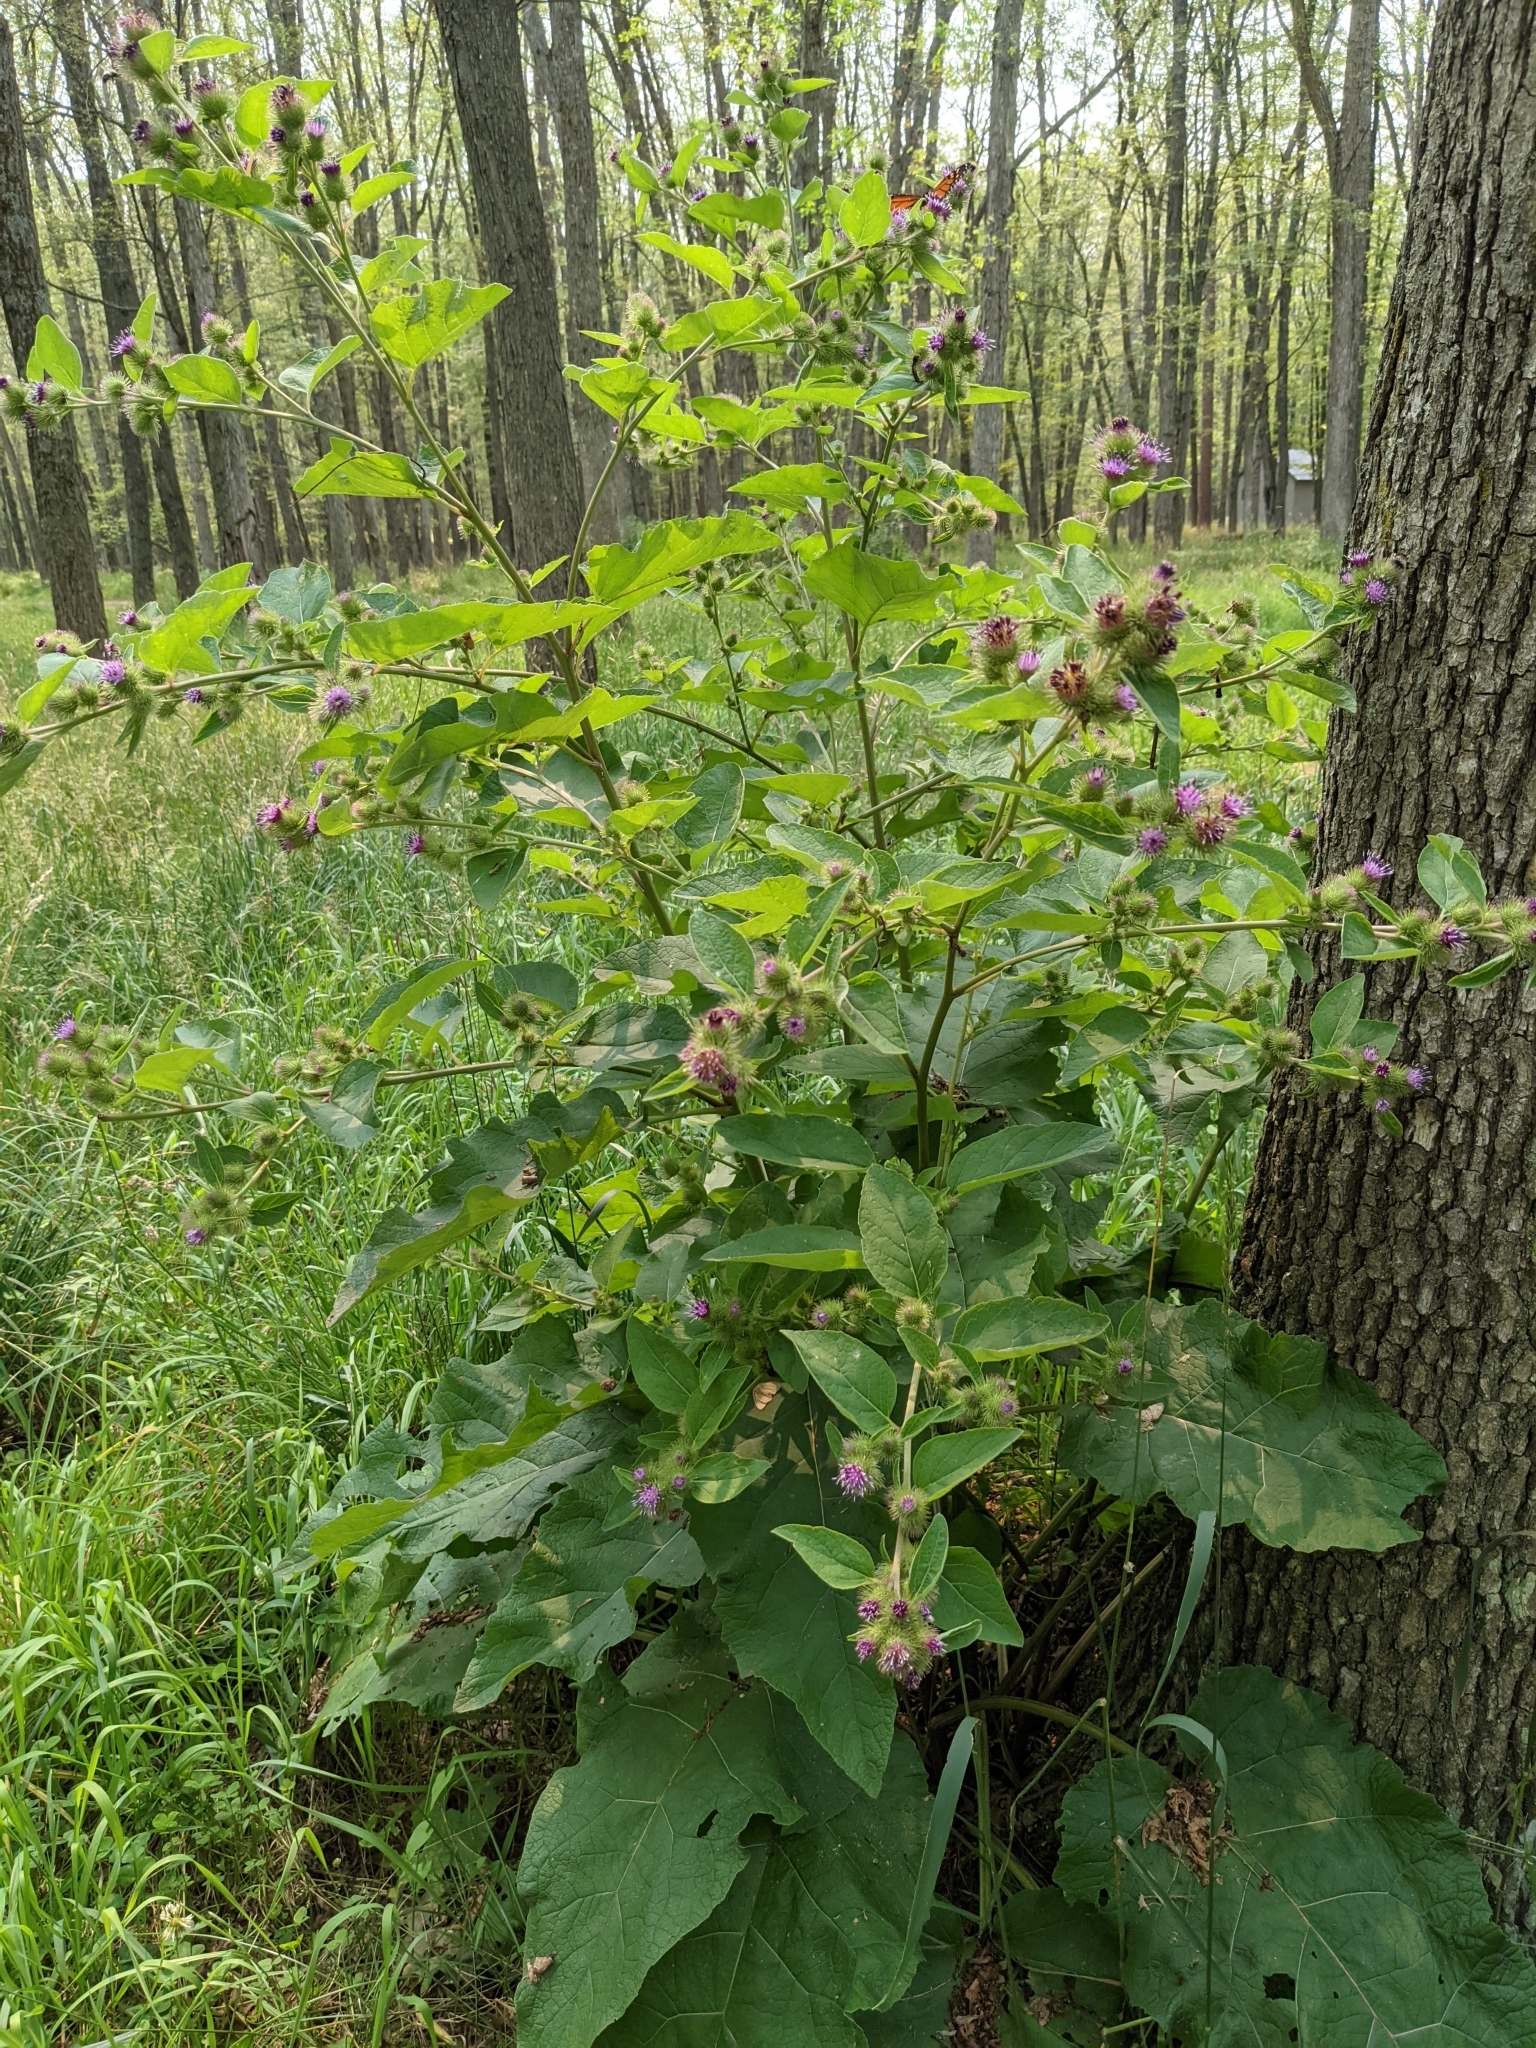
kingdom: Plantae
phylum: Tracheophyta
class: Magnoliopsida
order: Asterales
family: Asteraceae
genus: Arctium
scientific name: Arctium minus
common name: Lesser burdock
